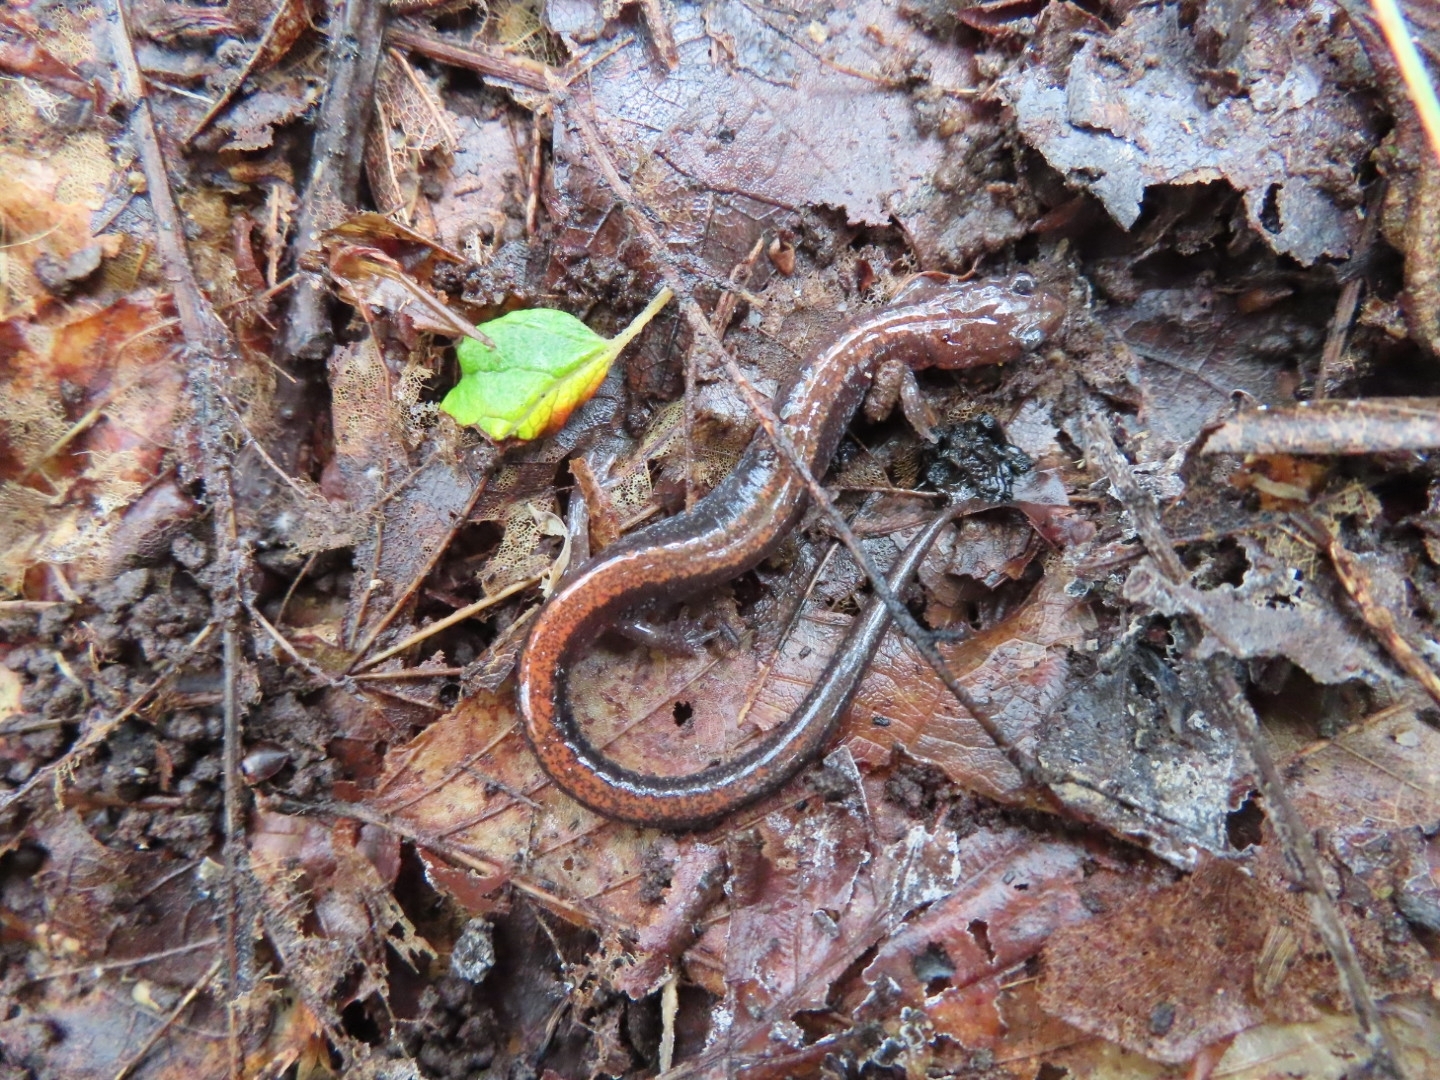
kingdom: Animalia
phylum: Chordata
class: Amphibia
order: Caudata
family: Plethodontidae
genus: Plethodon
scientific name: Plethodon cinereus
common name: Redback salamander
